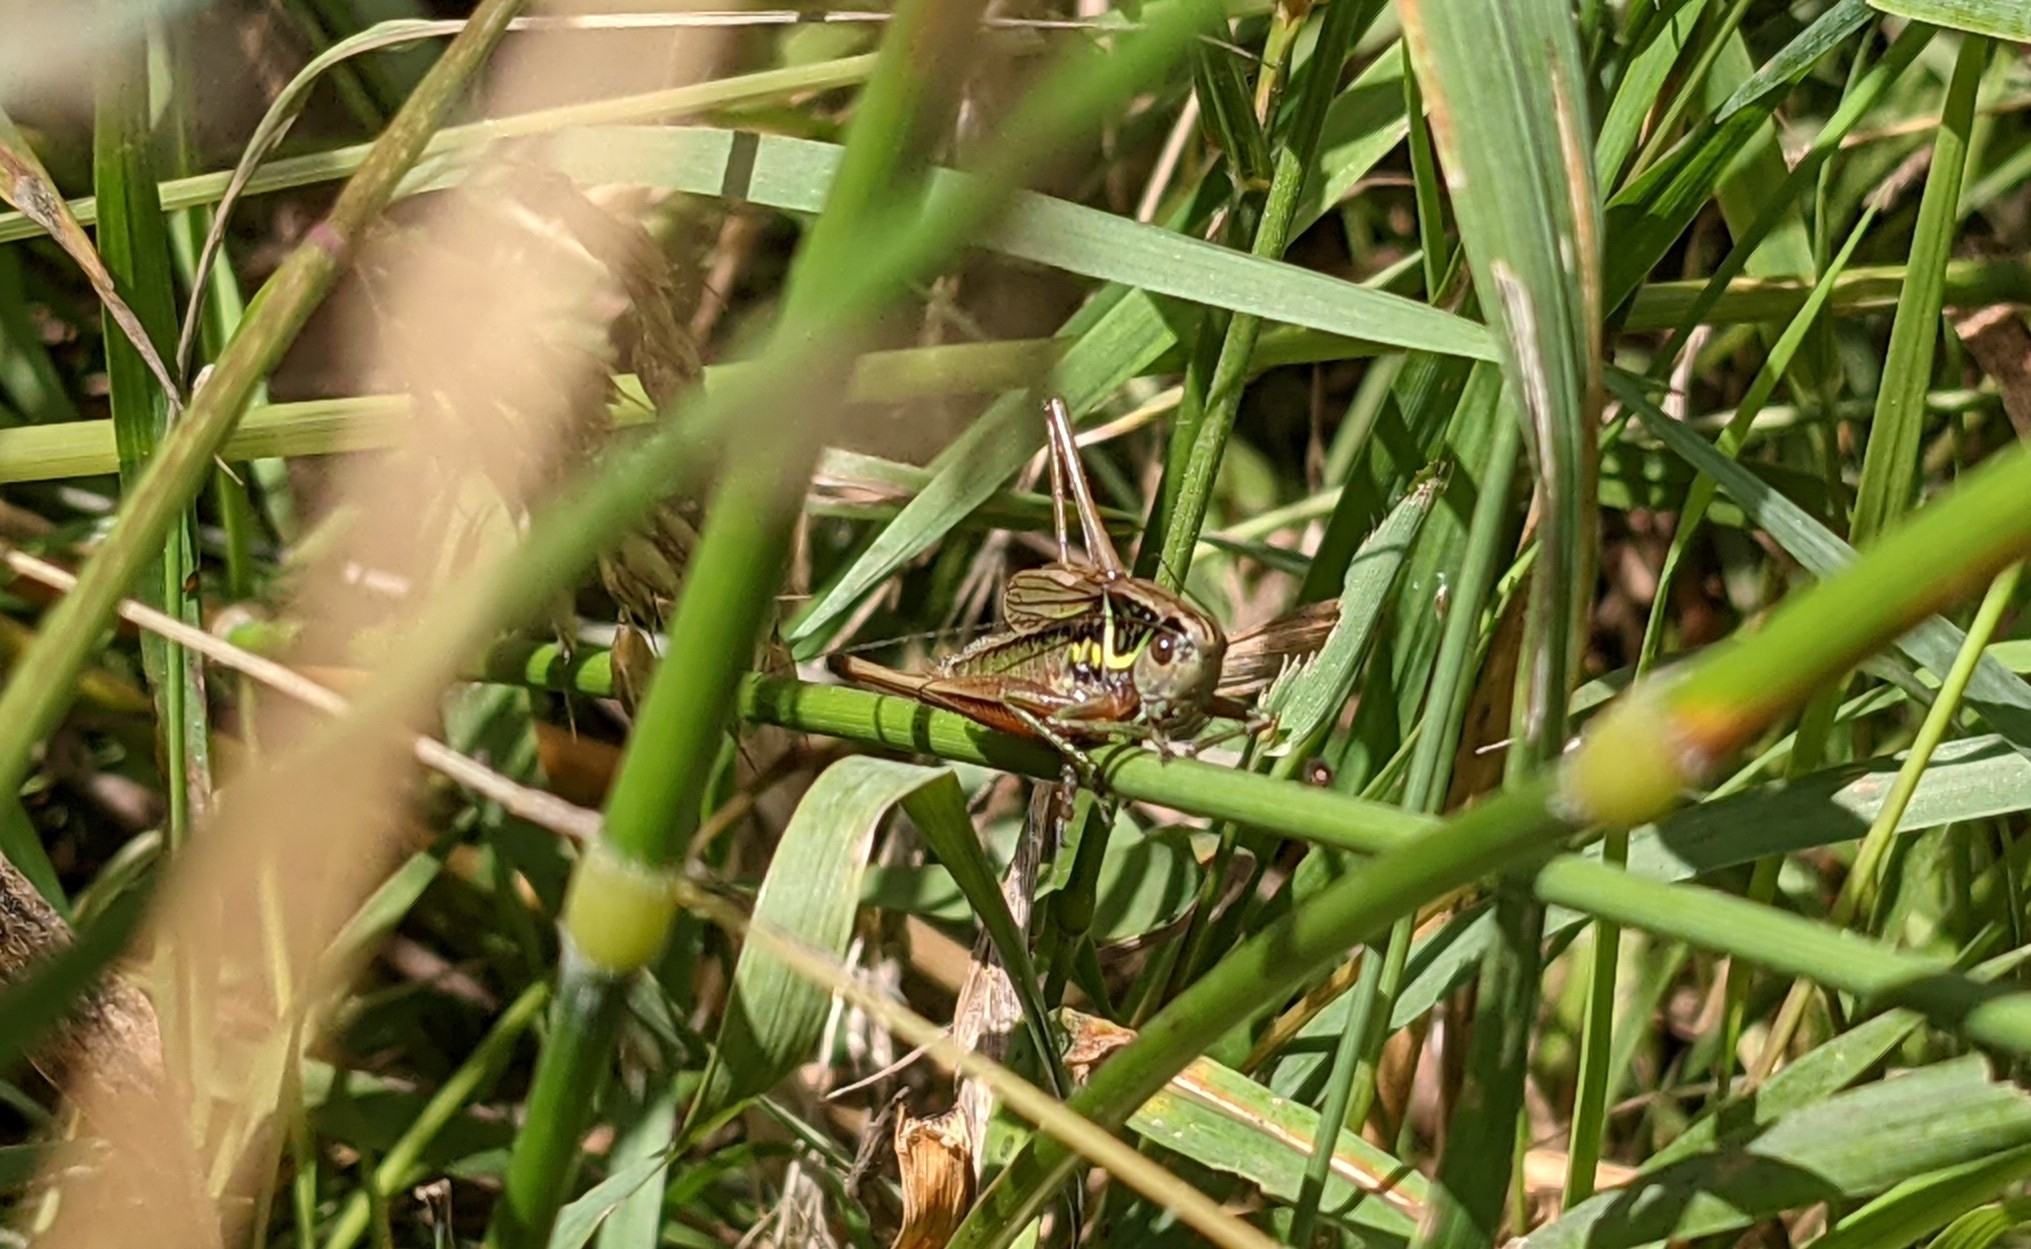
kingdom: Animalia
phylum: Arthropoda
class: Insecta
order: Orthoptera
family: Tettigoniidae
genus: Roeseliana
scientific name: Roeseliana roeselii
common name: Roesel's bush cricket
